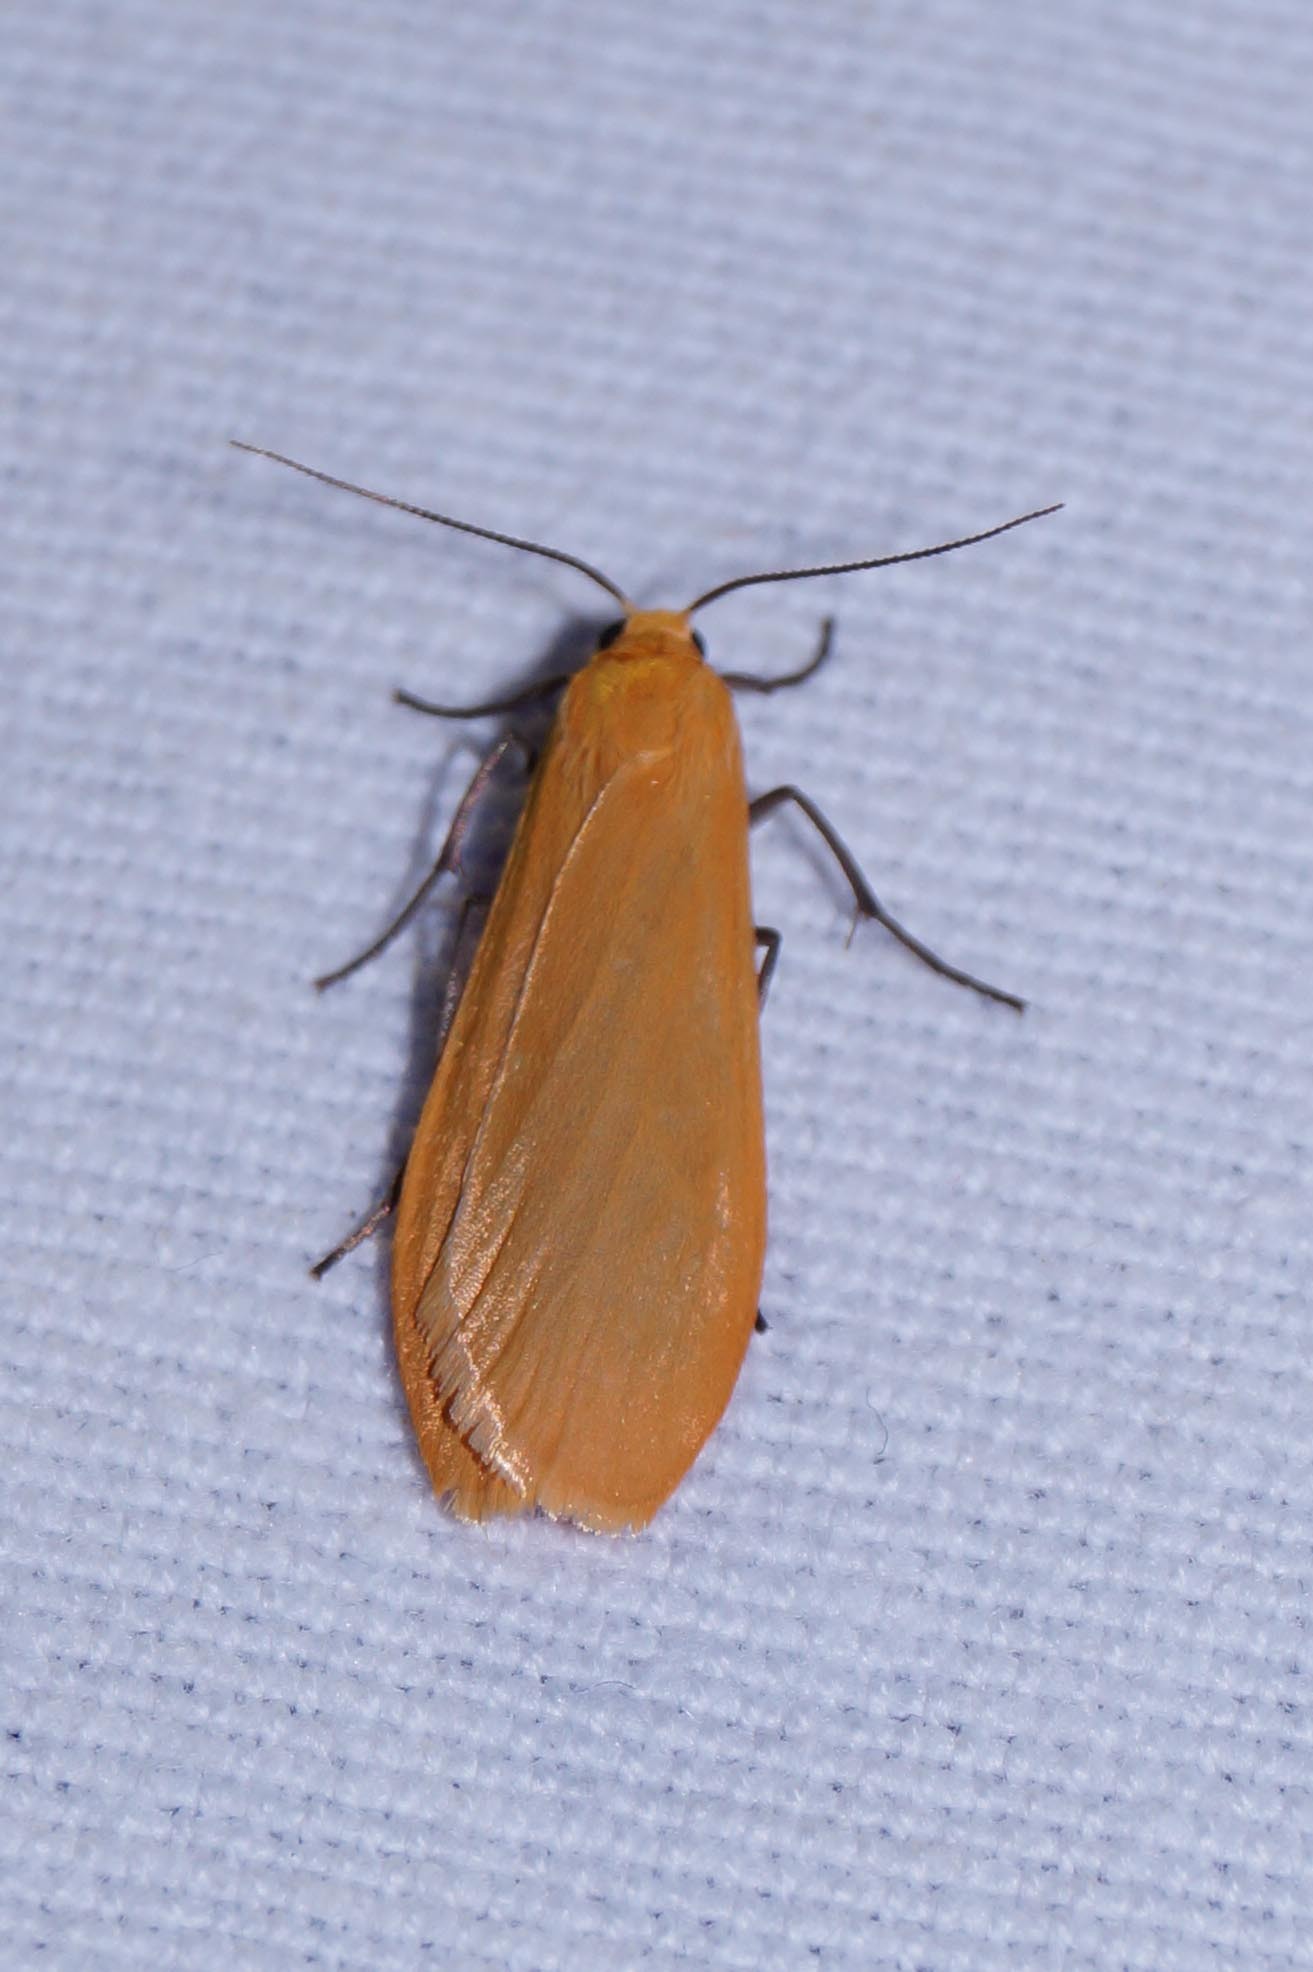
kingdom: Animalia
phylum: Arthropoda
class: Insecta
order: Lepidoptera
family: Erebidae
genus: Wittia
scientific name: Wittia sororcula
